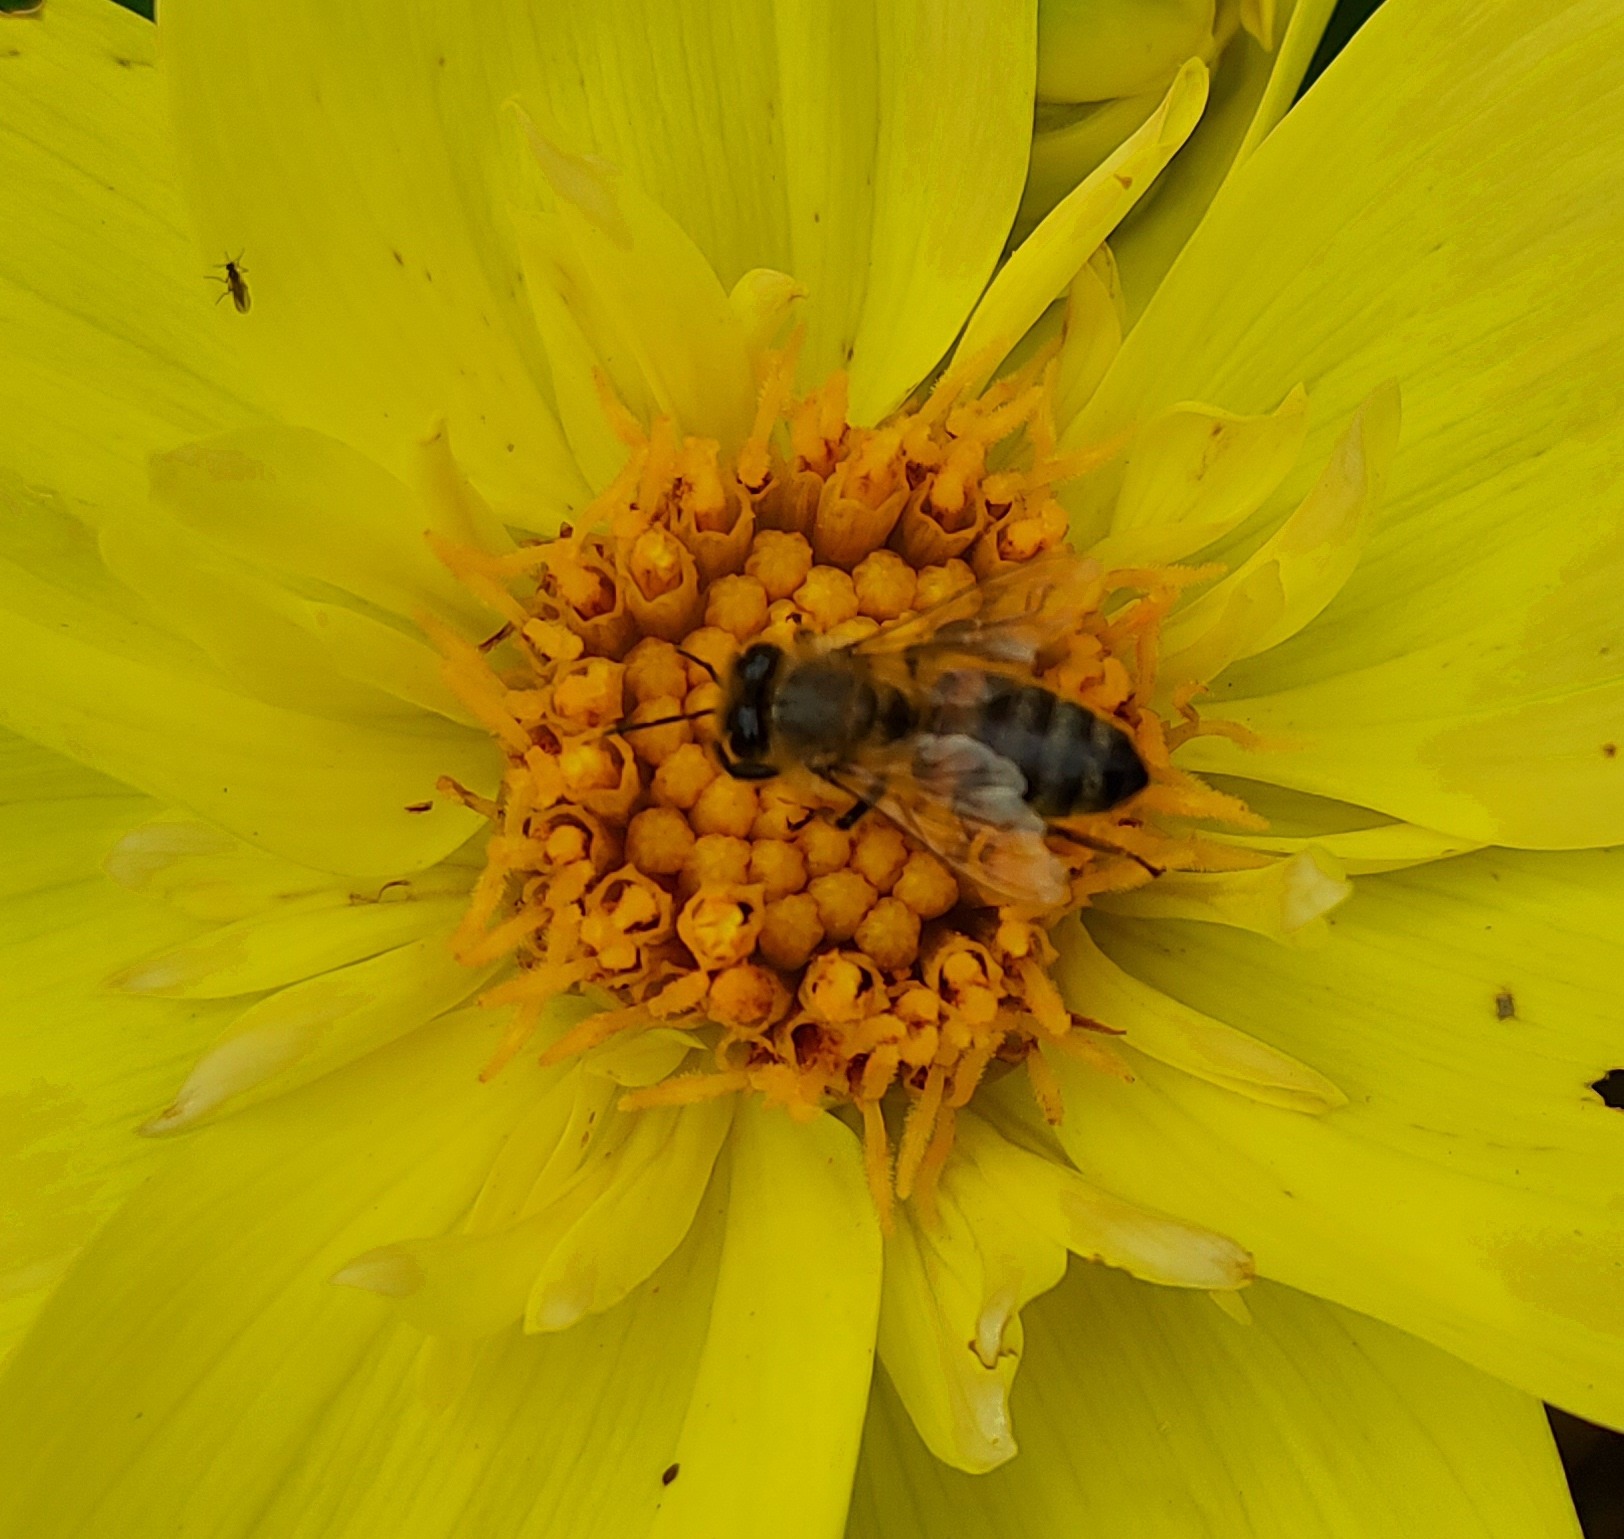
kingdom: Animalia
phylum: Arthropoda
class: Insecta
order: Hymenoptera
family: Apidae
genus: Apis
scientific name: Apis mellifera
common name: Honey bee
